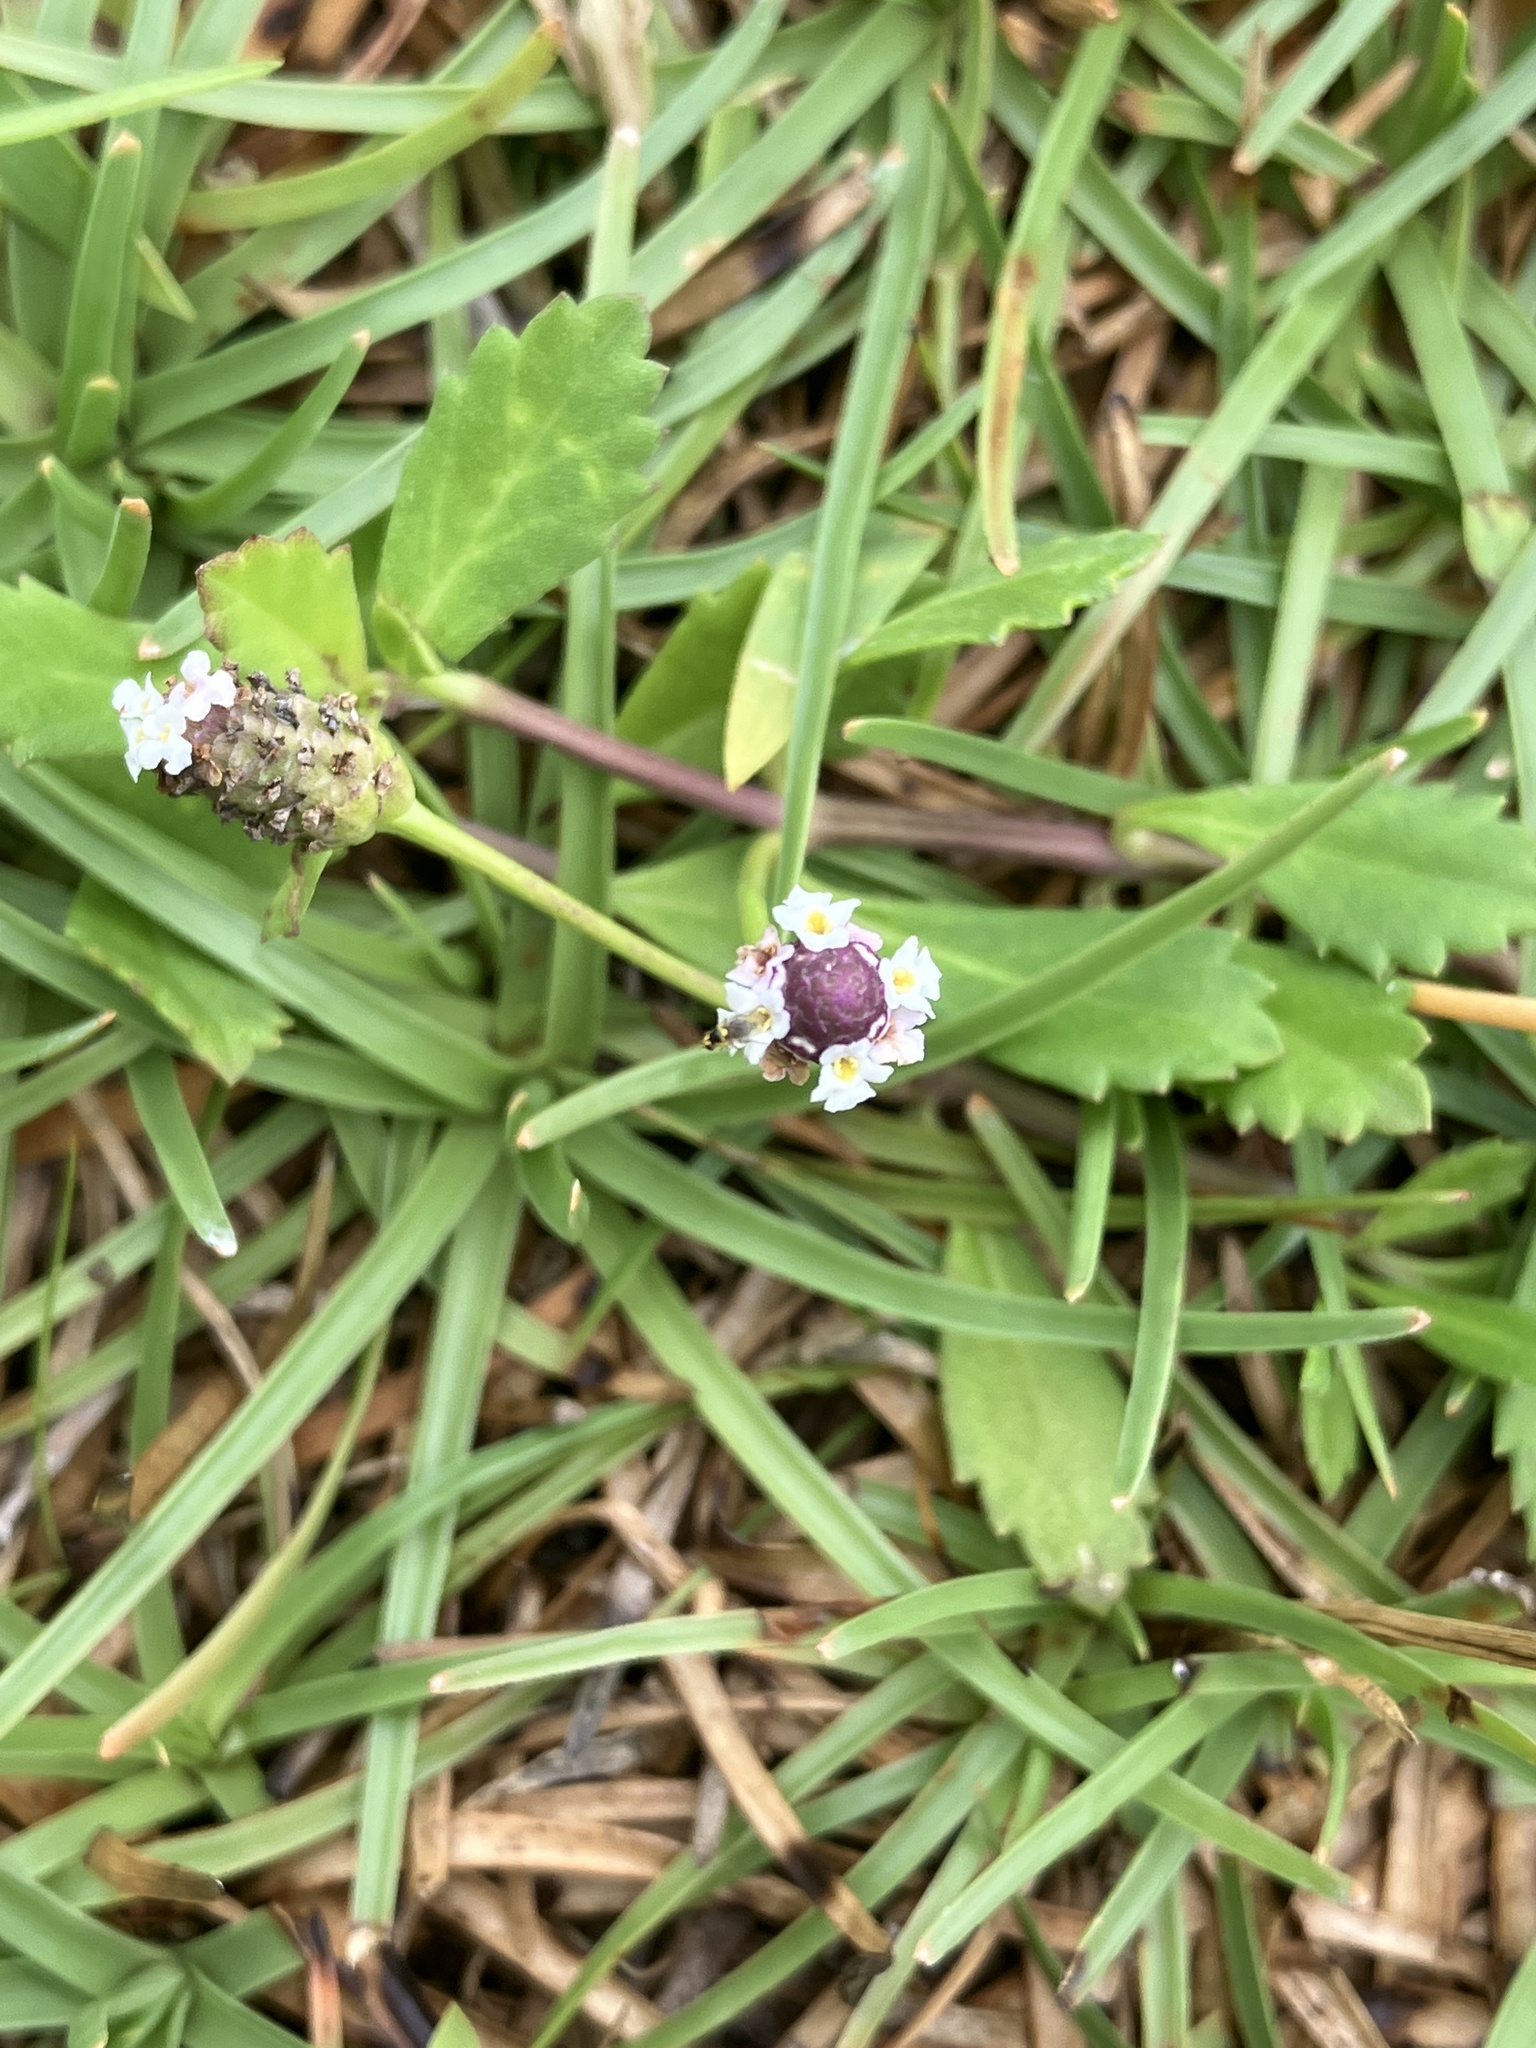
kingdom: Plantae
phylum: Tracheophyta
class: Magnoliopsida
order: Lamiales
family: Verbenaceae
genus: Phyla
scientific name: Phyla nodiflora
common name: Frogfruit
